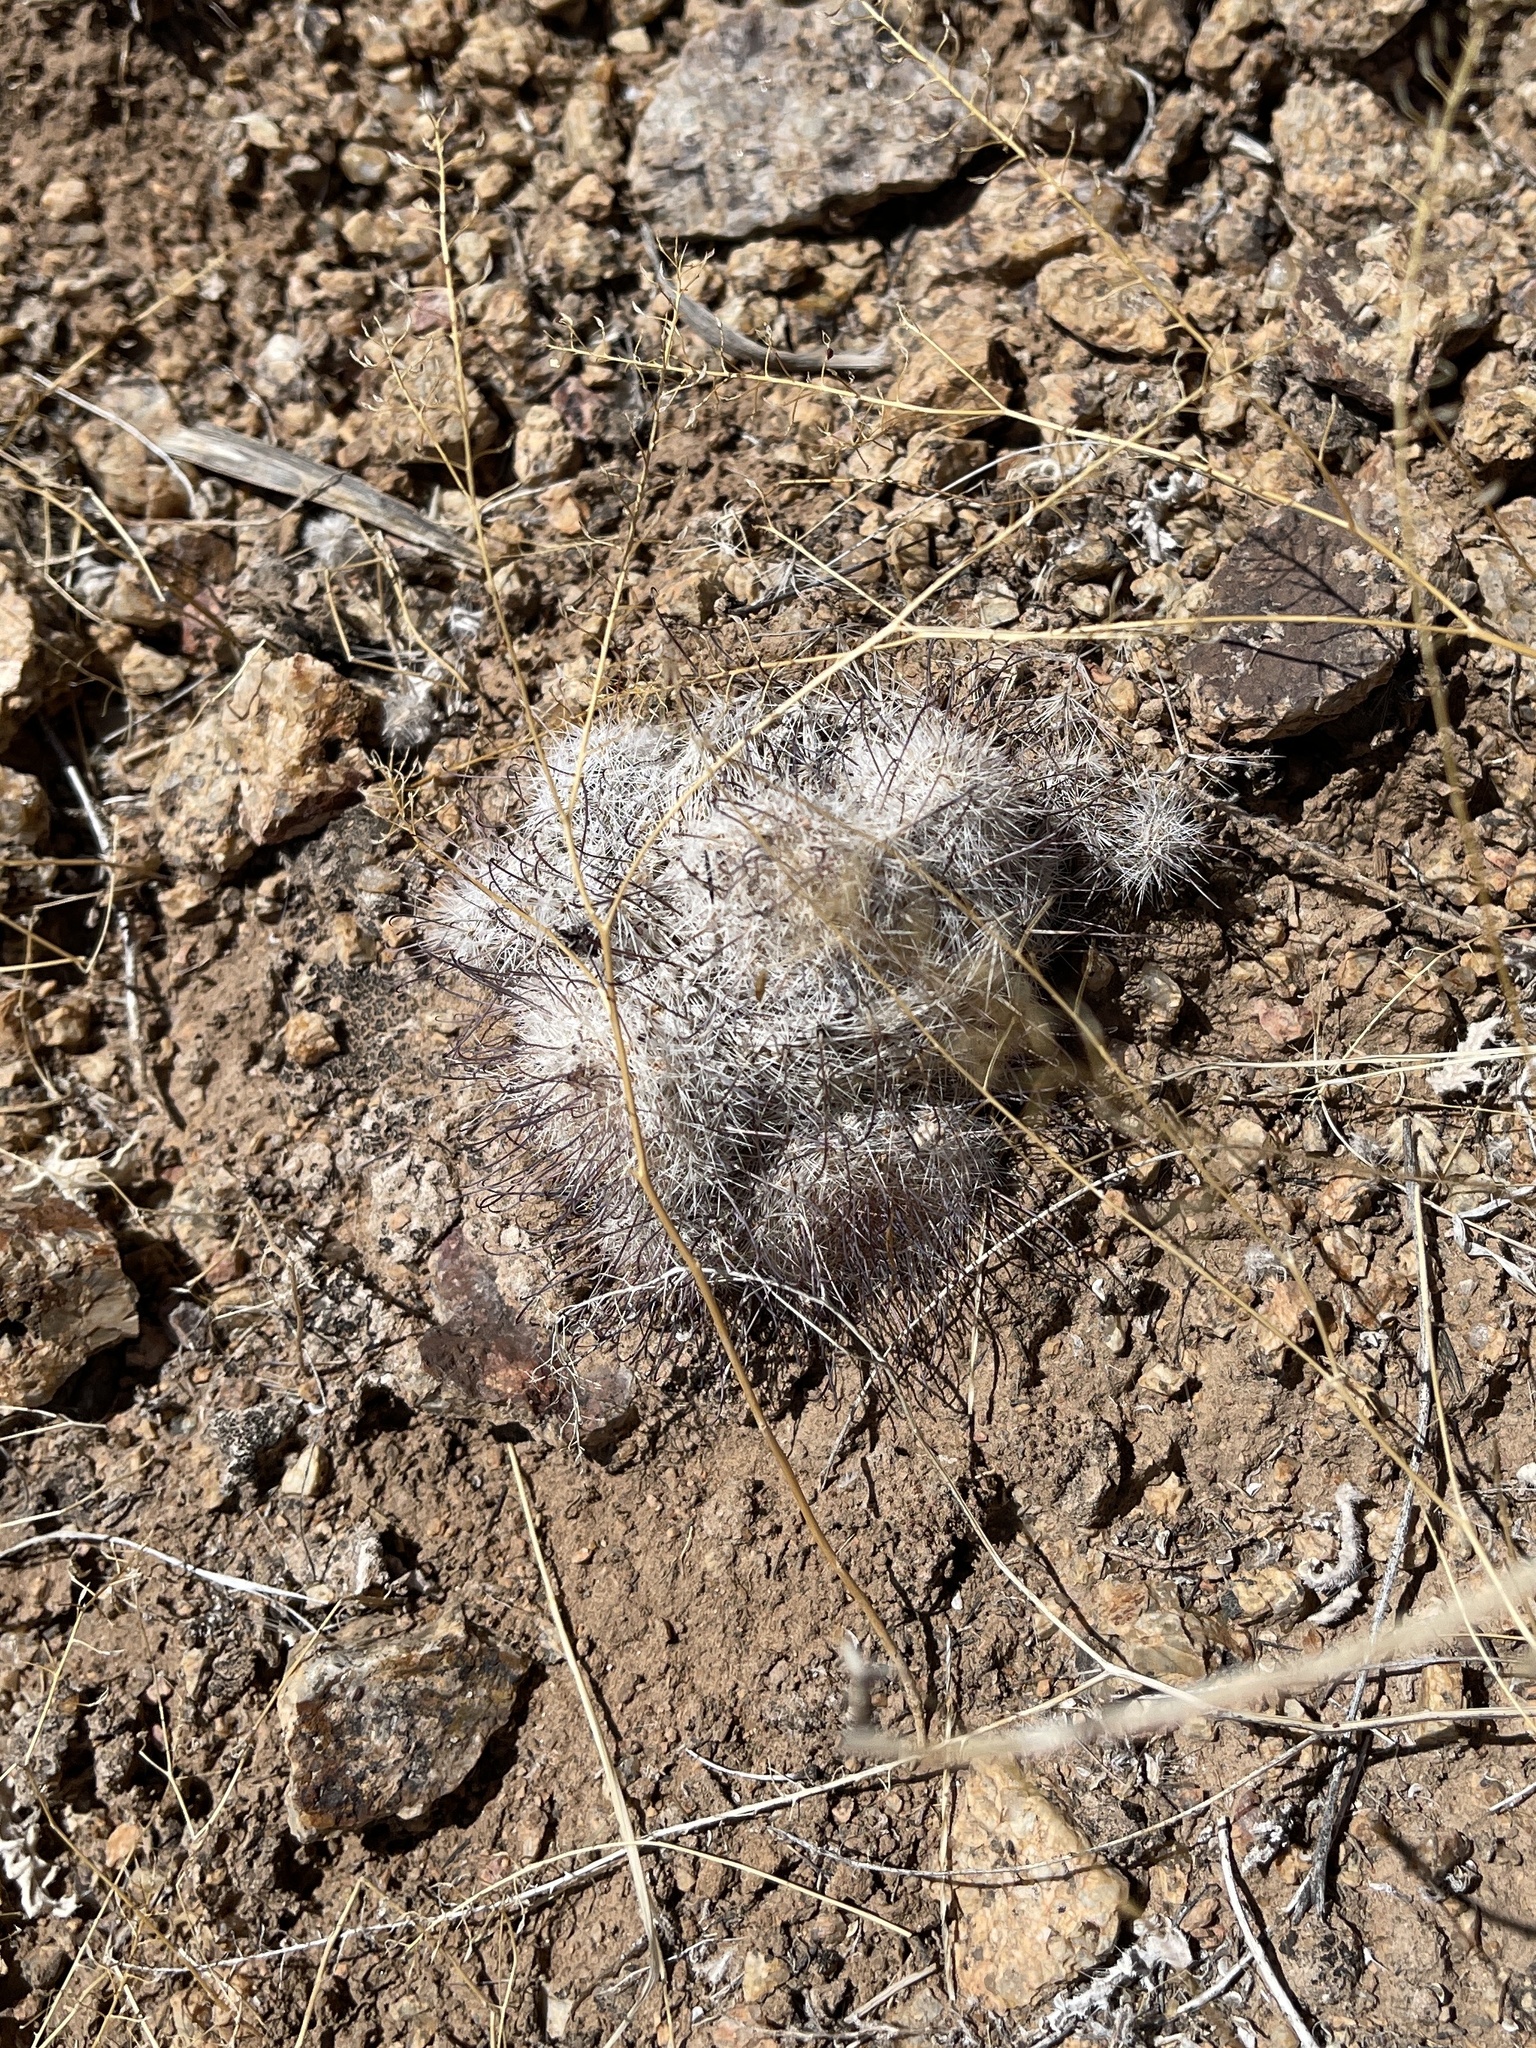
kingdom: Plantae
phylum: Tracheophyta
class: Magnoliopsida
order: Caryophyllales
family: Cactaceae
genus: Cochemiea
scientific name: Cochemiea grahamii
